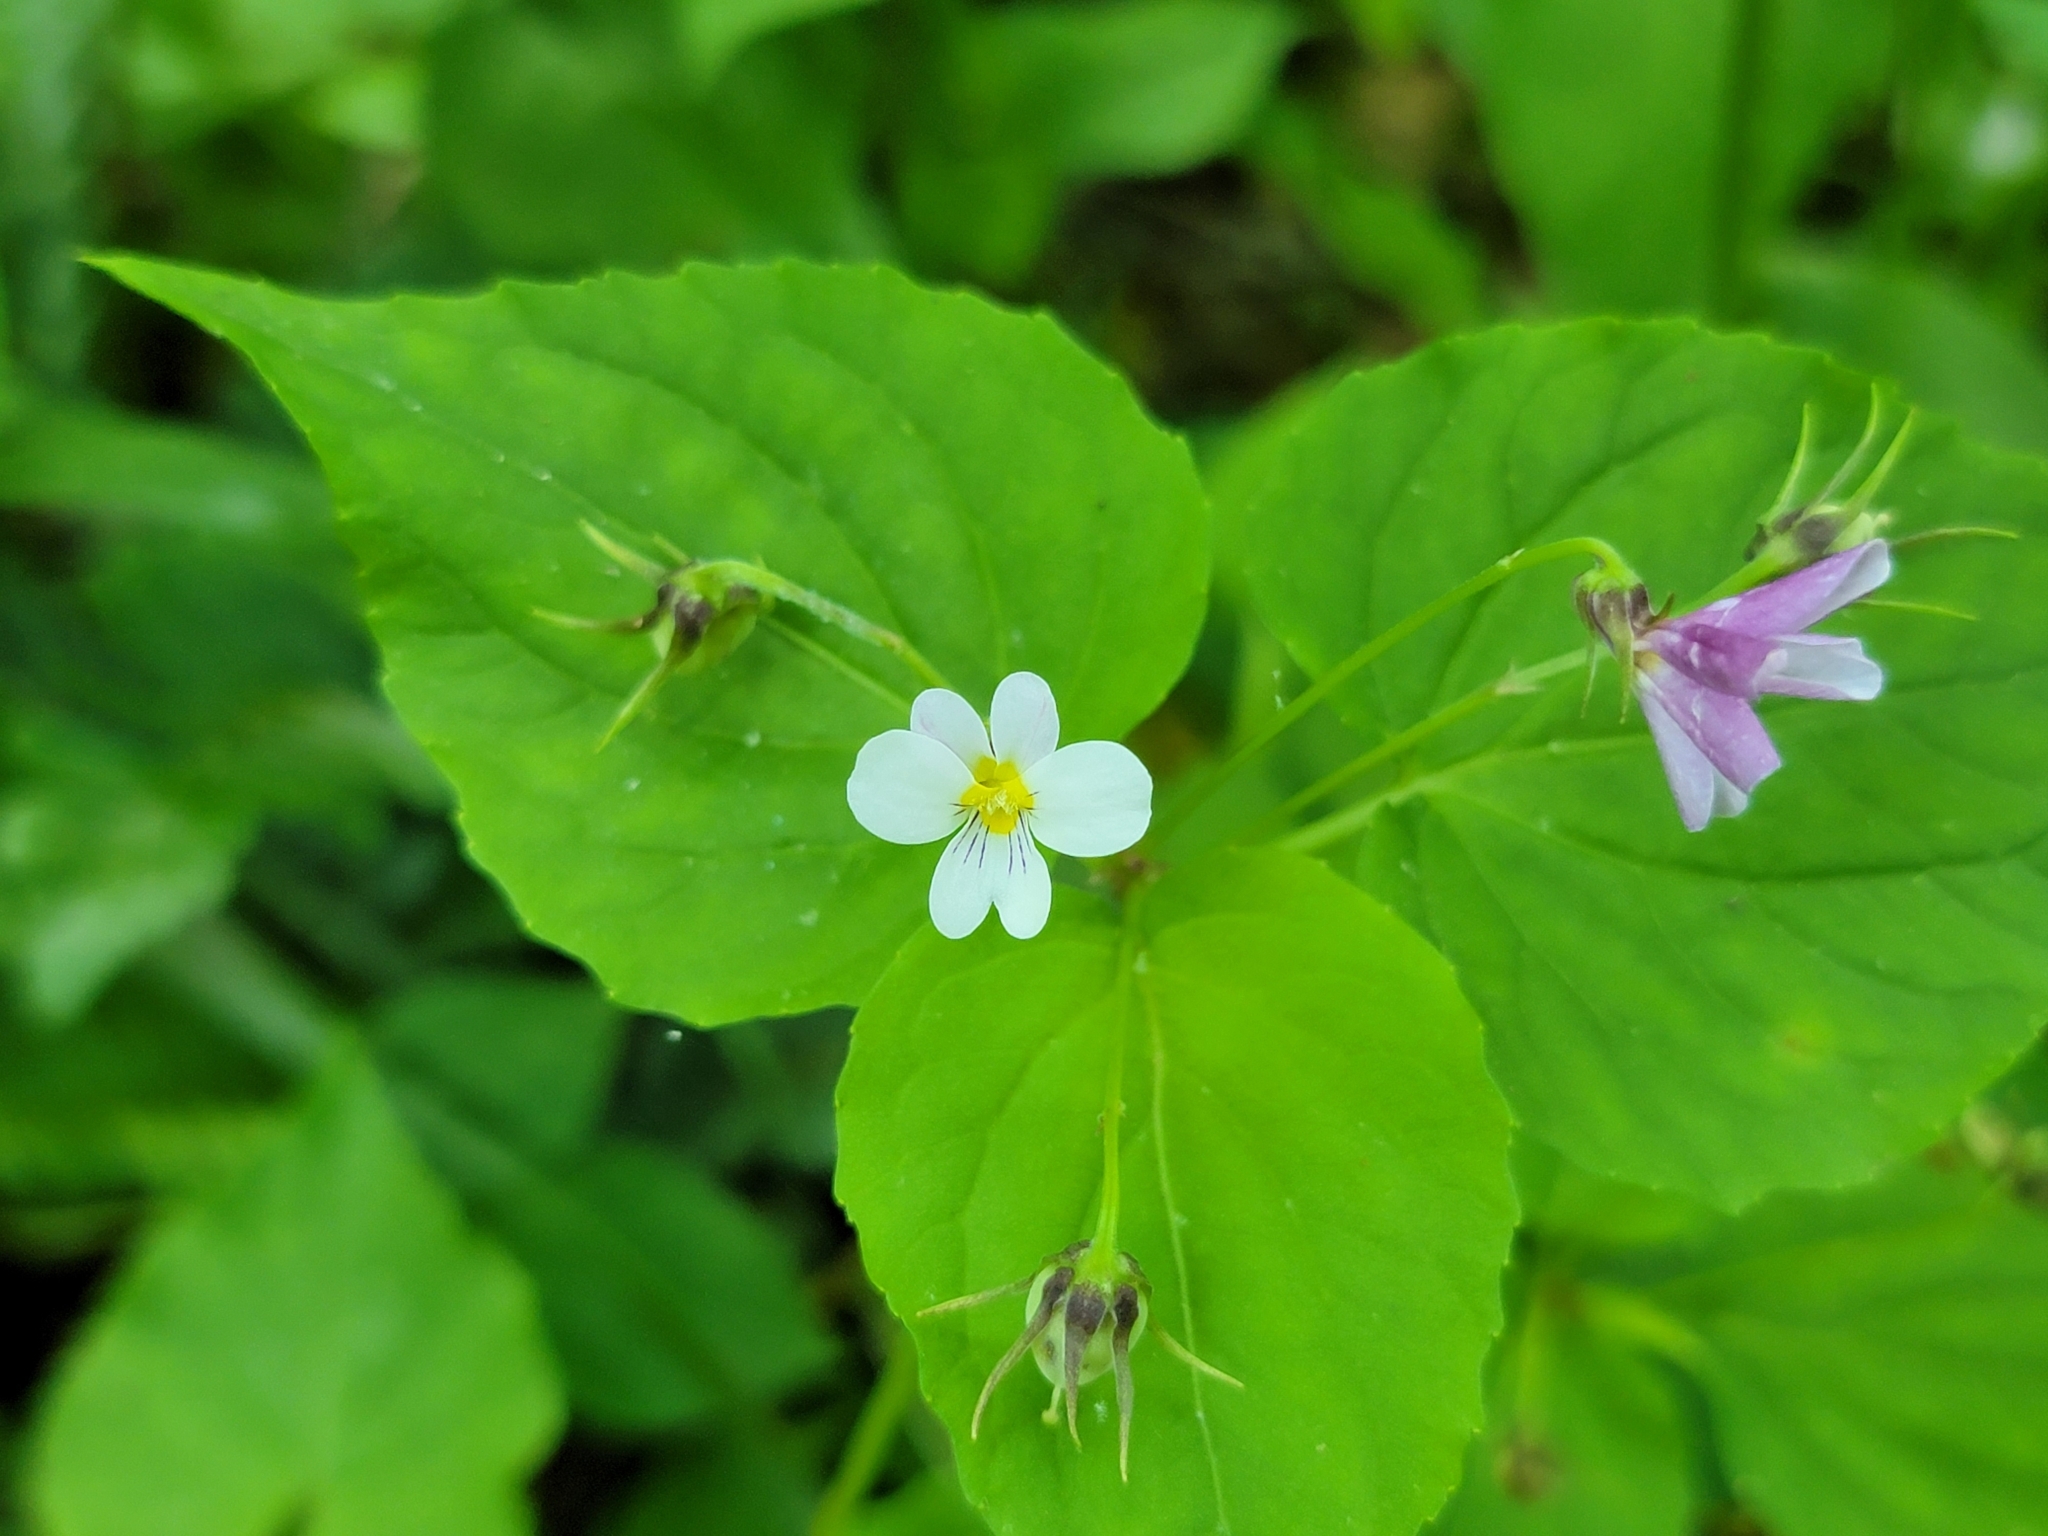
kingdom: Plantae
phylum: Tracheophyta
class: Magnoliopsida
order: Malpighiales
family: Violaceae
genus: Viola
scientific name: Viola canadensis
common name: Canada violet
